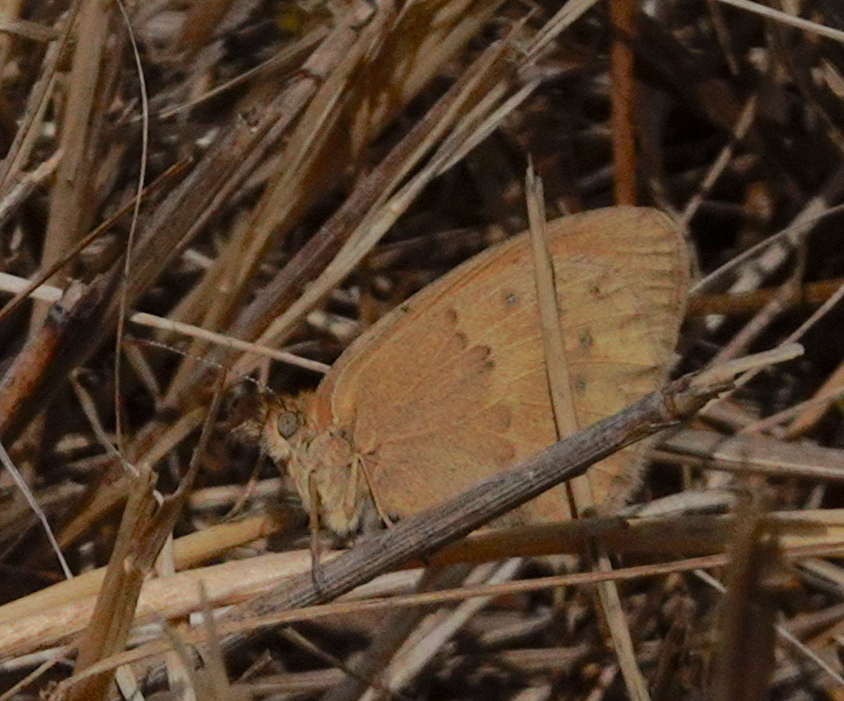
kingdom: Animalia
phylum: Arthropoda
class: Insecta
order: Lepidoptera
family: Nymphalidae
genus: Coenonympha
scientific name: Coenonympha pamphilus
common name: Small heath
